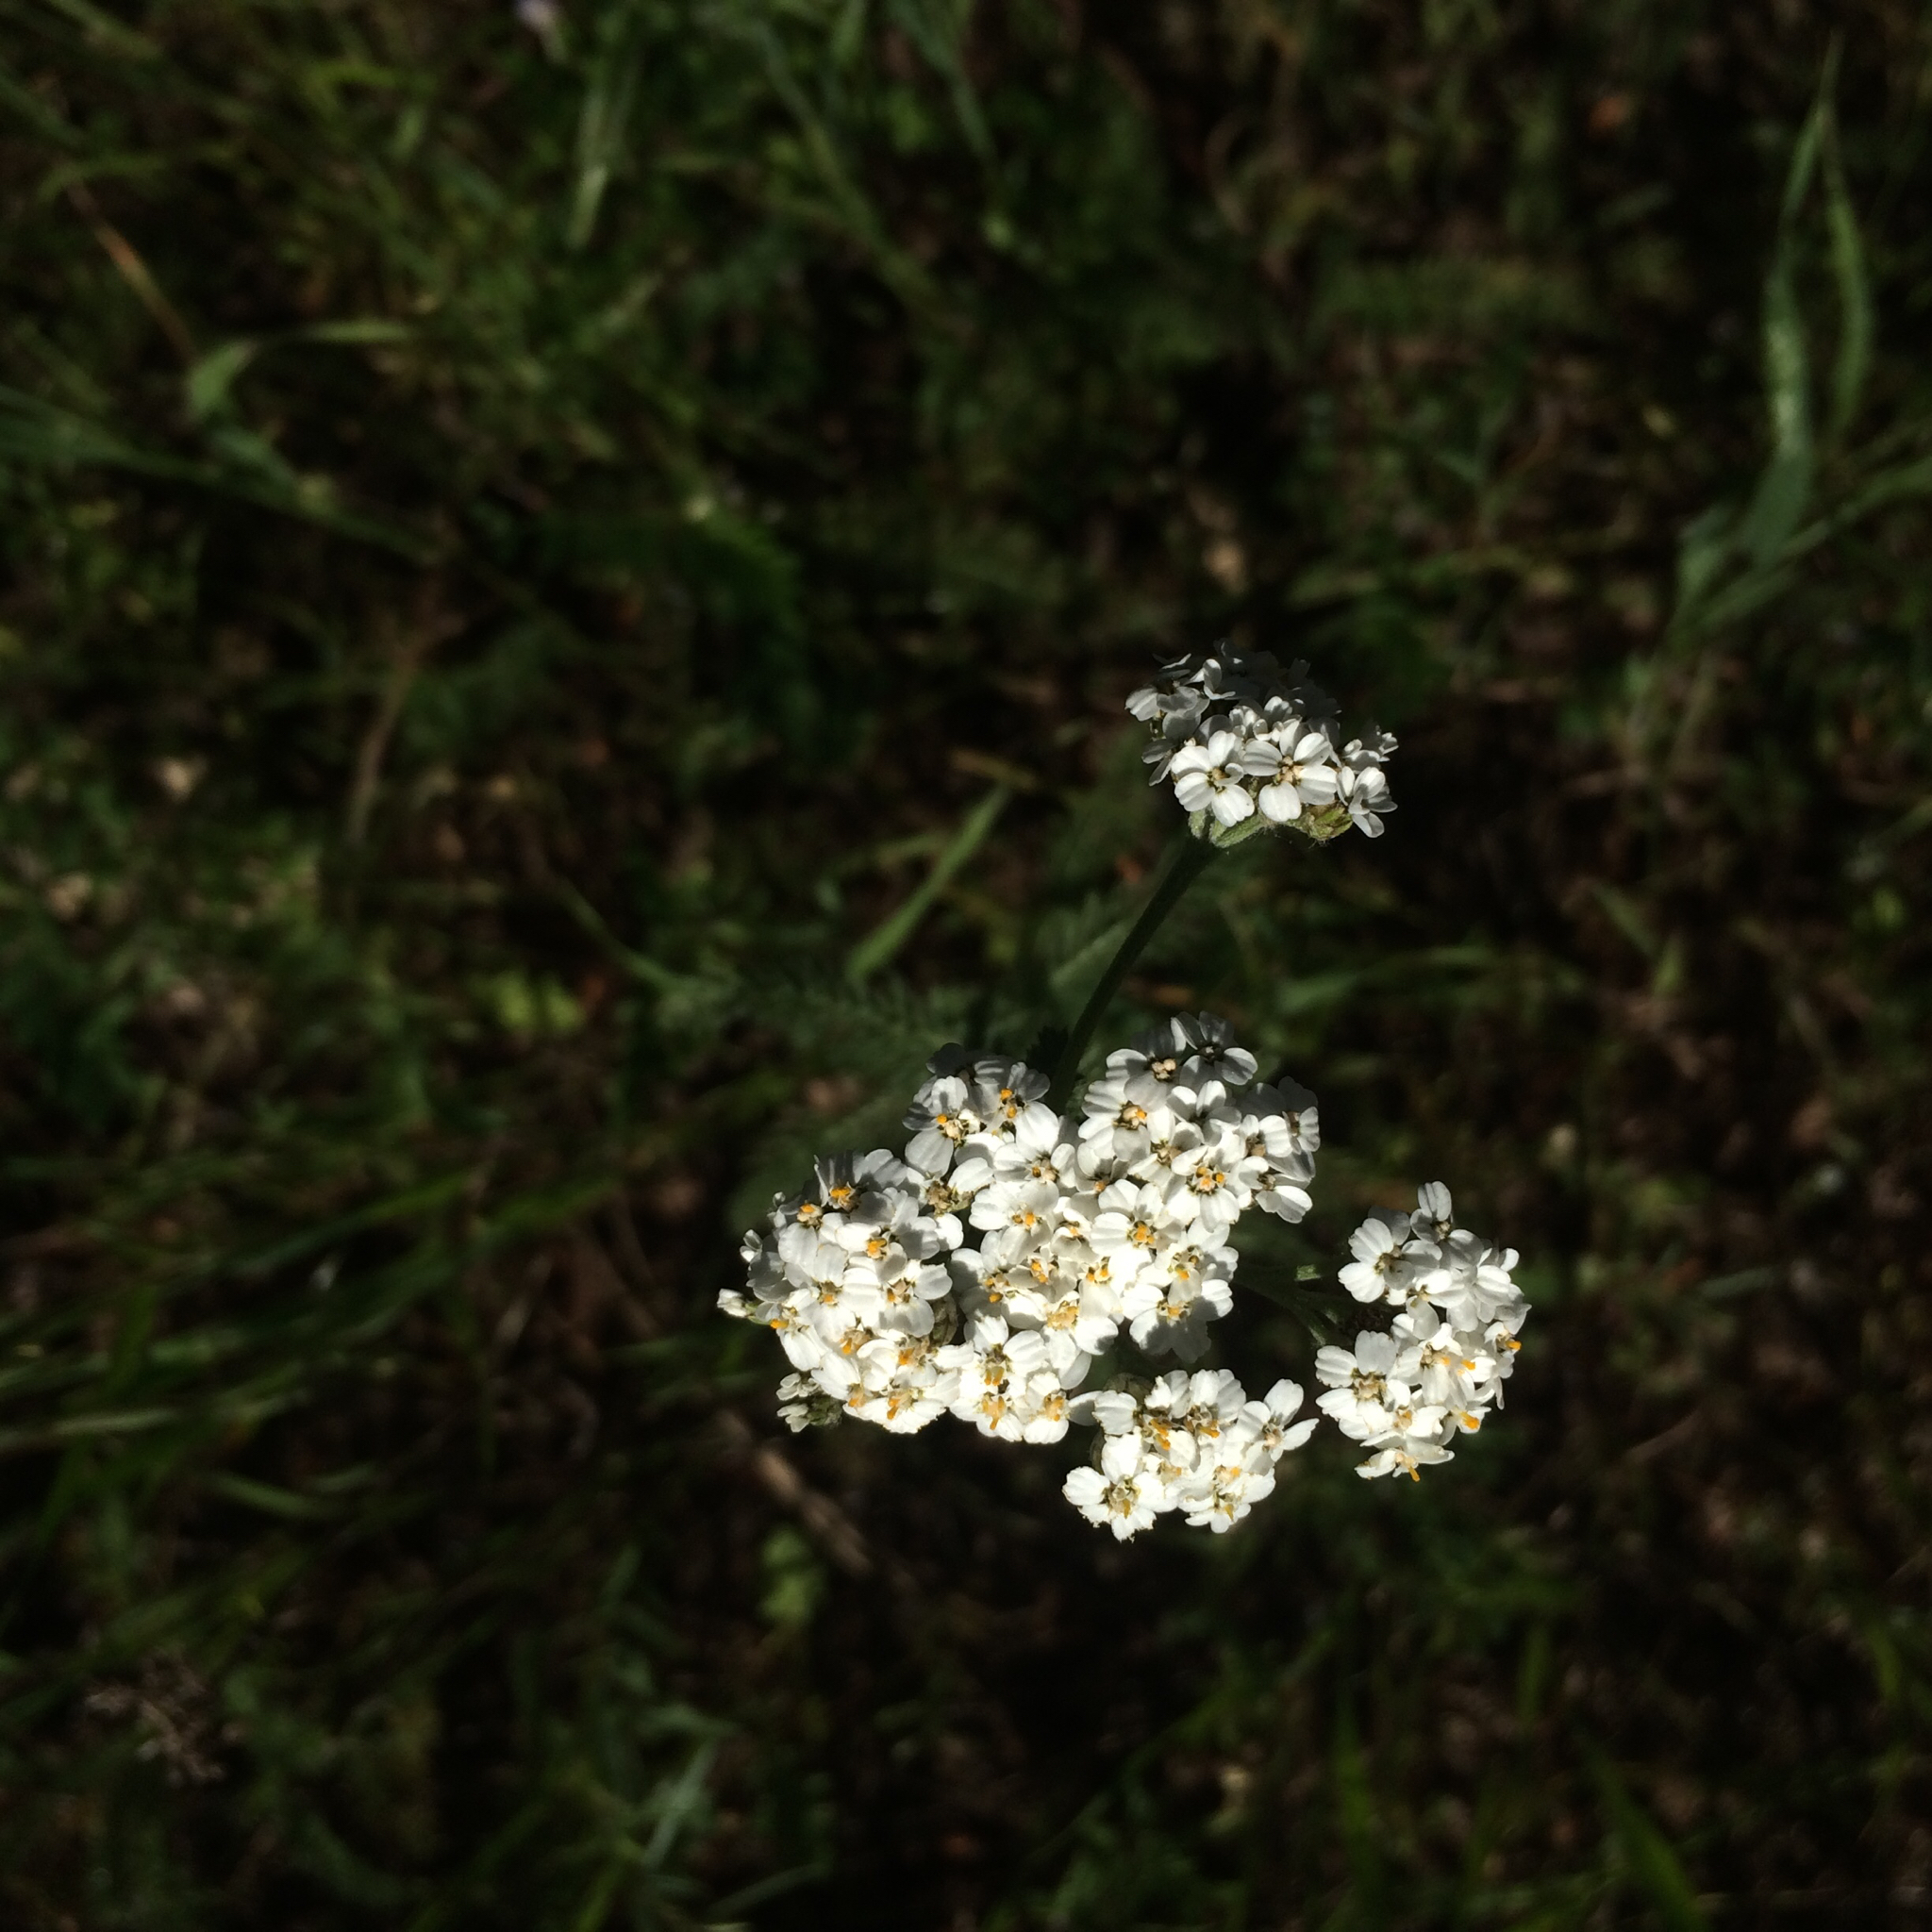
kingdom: Plantae
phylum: Tracheophyta
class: Magnoliopsida
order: Asterales
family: Asteraceae
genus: Achillea
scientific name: Achillea millefolium
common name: Yarrow
